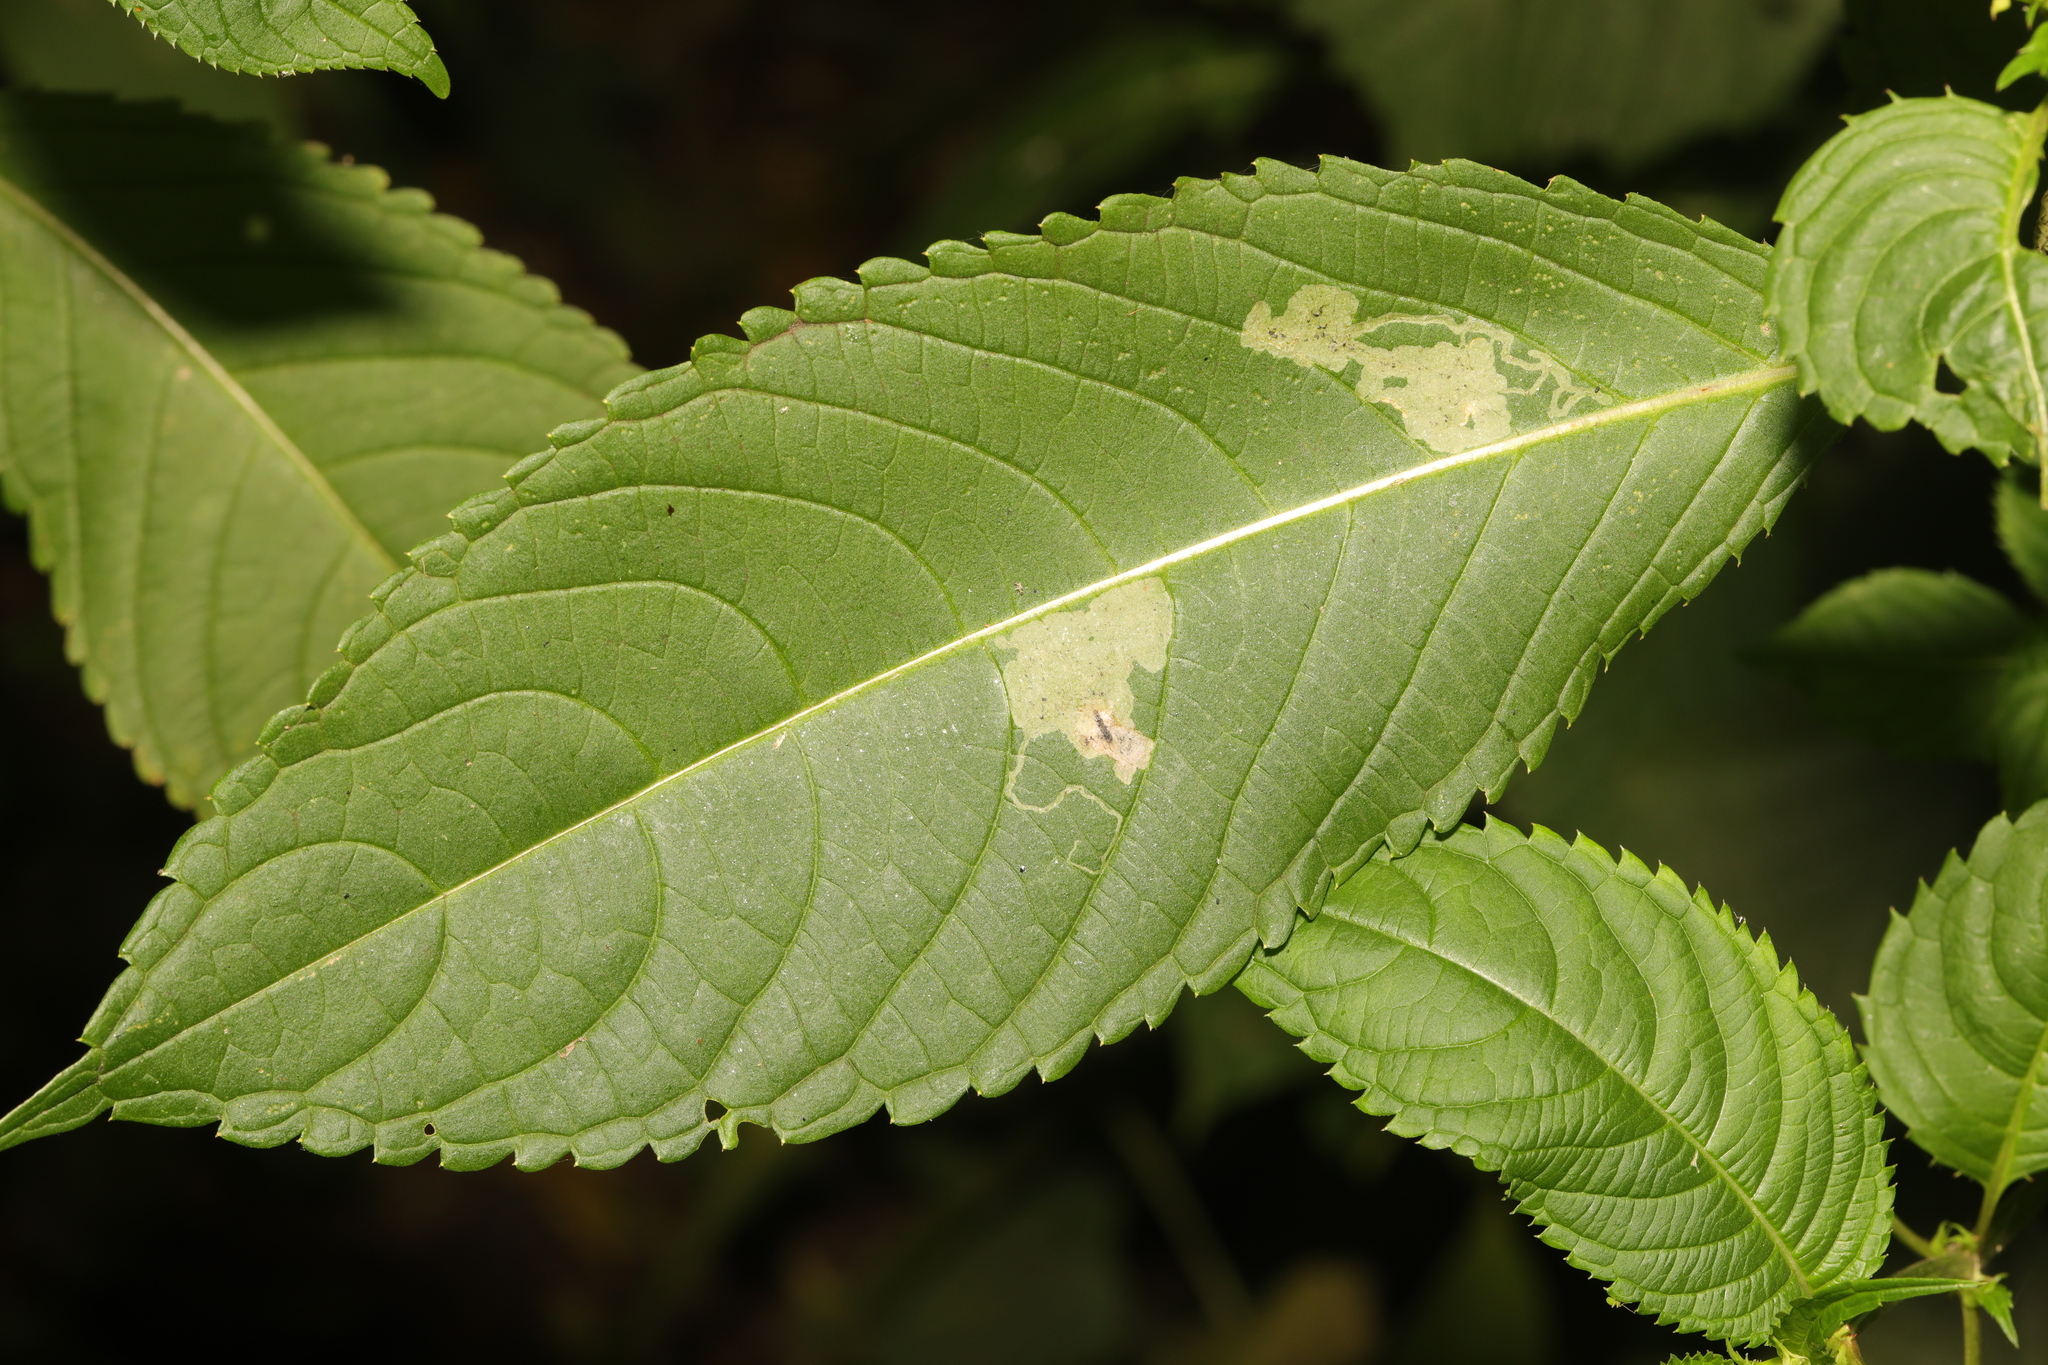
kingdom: Animalia
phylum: Arthropoda
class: Insecta
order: Diptera
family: Agromyzidae
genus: Phytoliriomyza
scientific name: Phytoliriomyza melampyga
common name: Jewelweed leaf-miner fly
